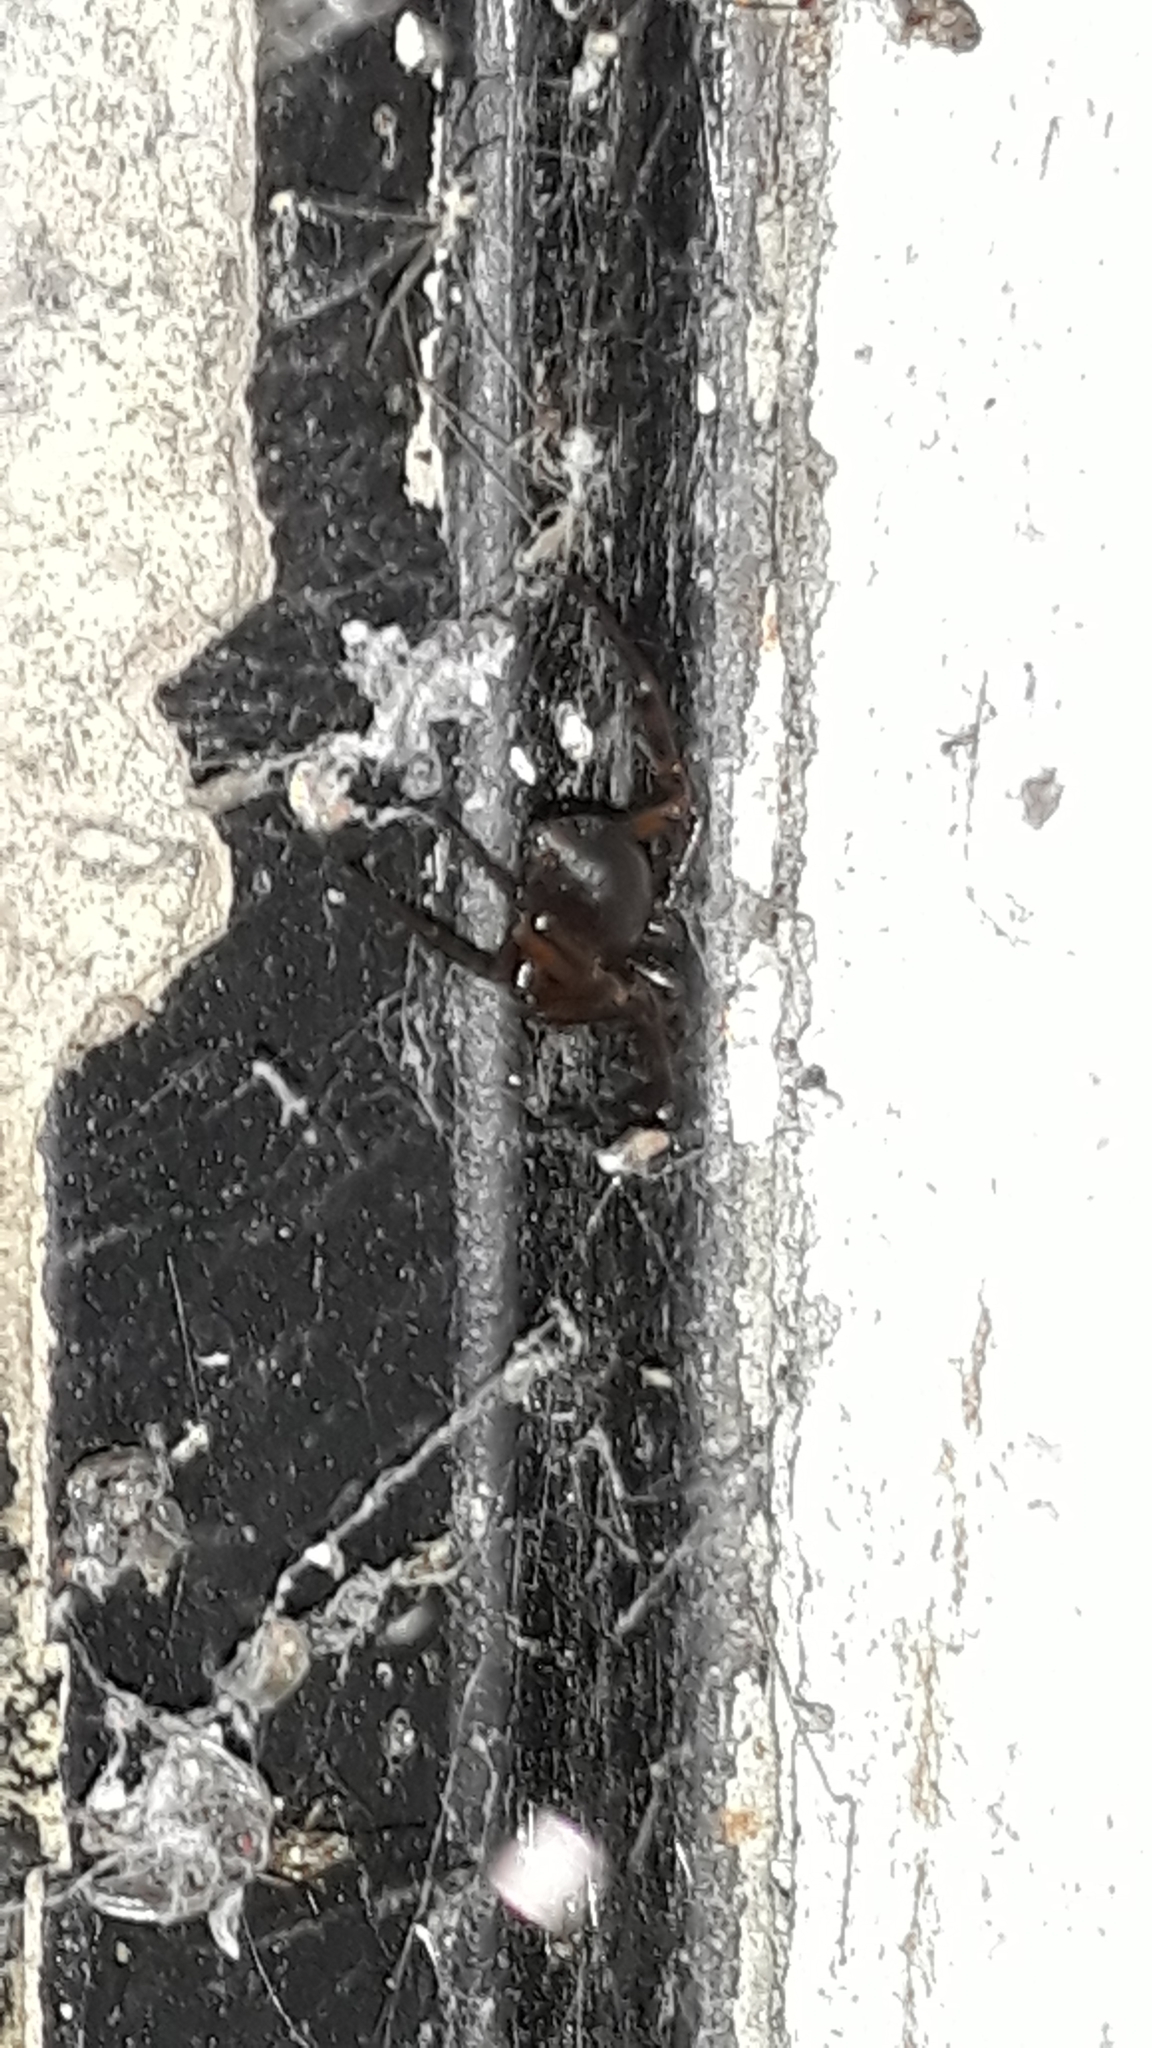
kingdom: Animalia
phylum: Arthropoda
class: Arachnida
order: Araneae
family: Theridiidae
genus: Steatoda
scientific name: Steatoda nobilis
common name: Cobweb weaver
